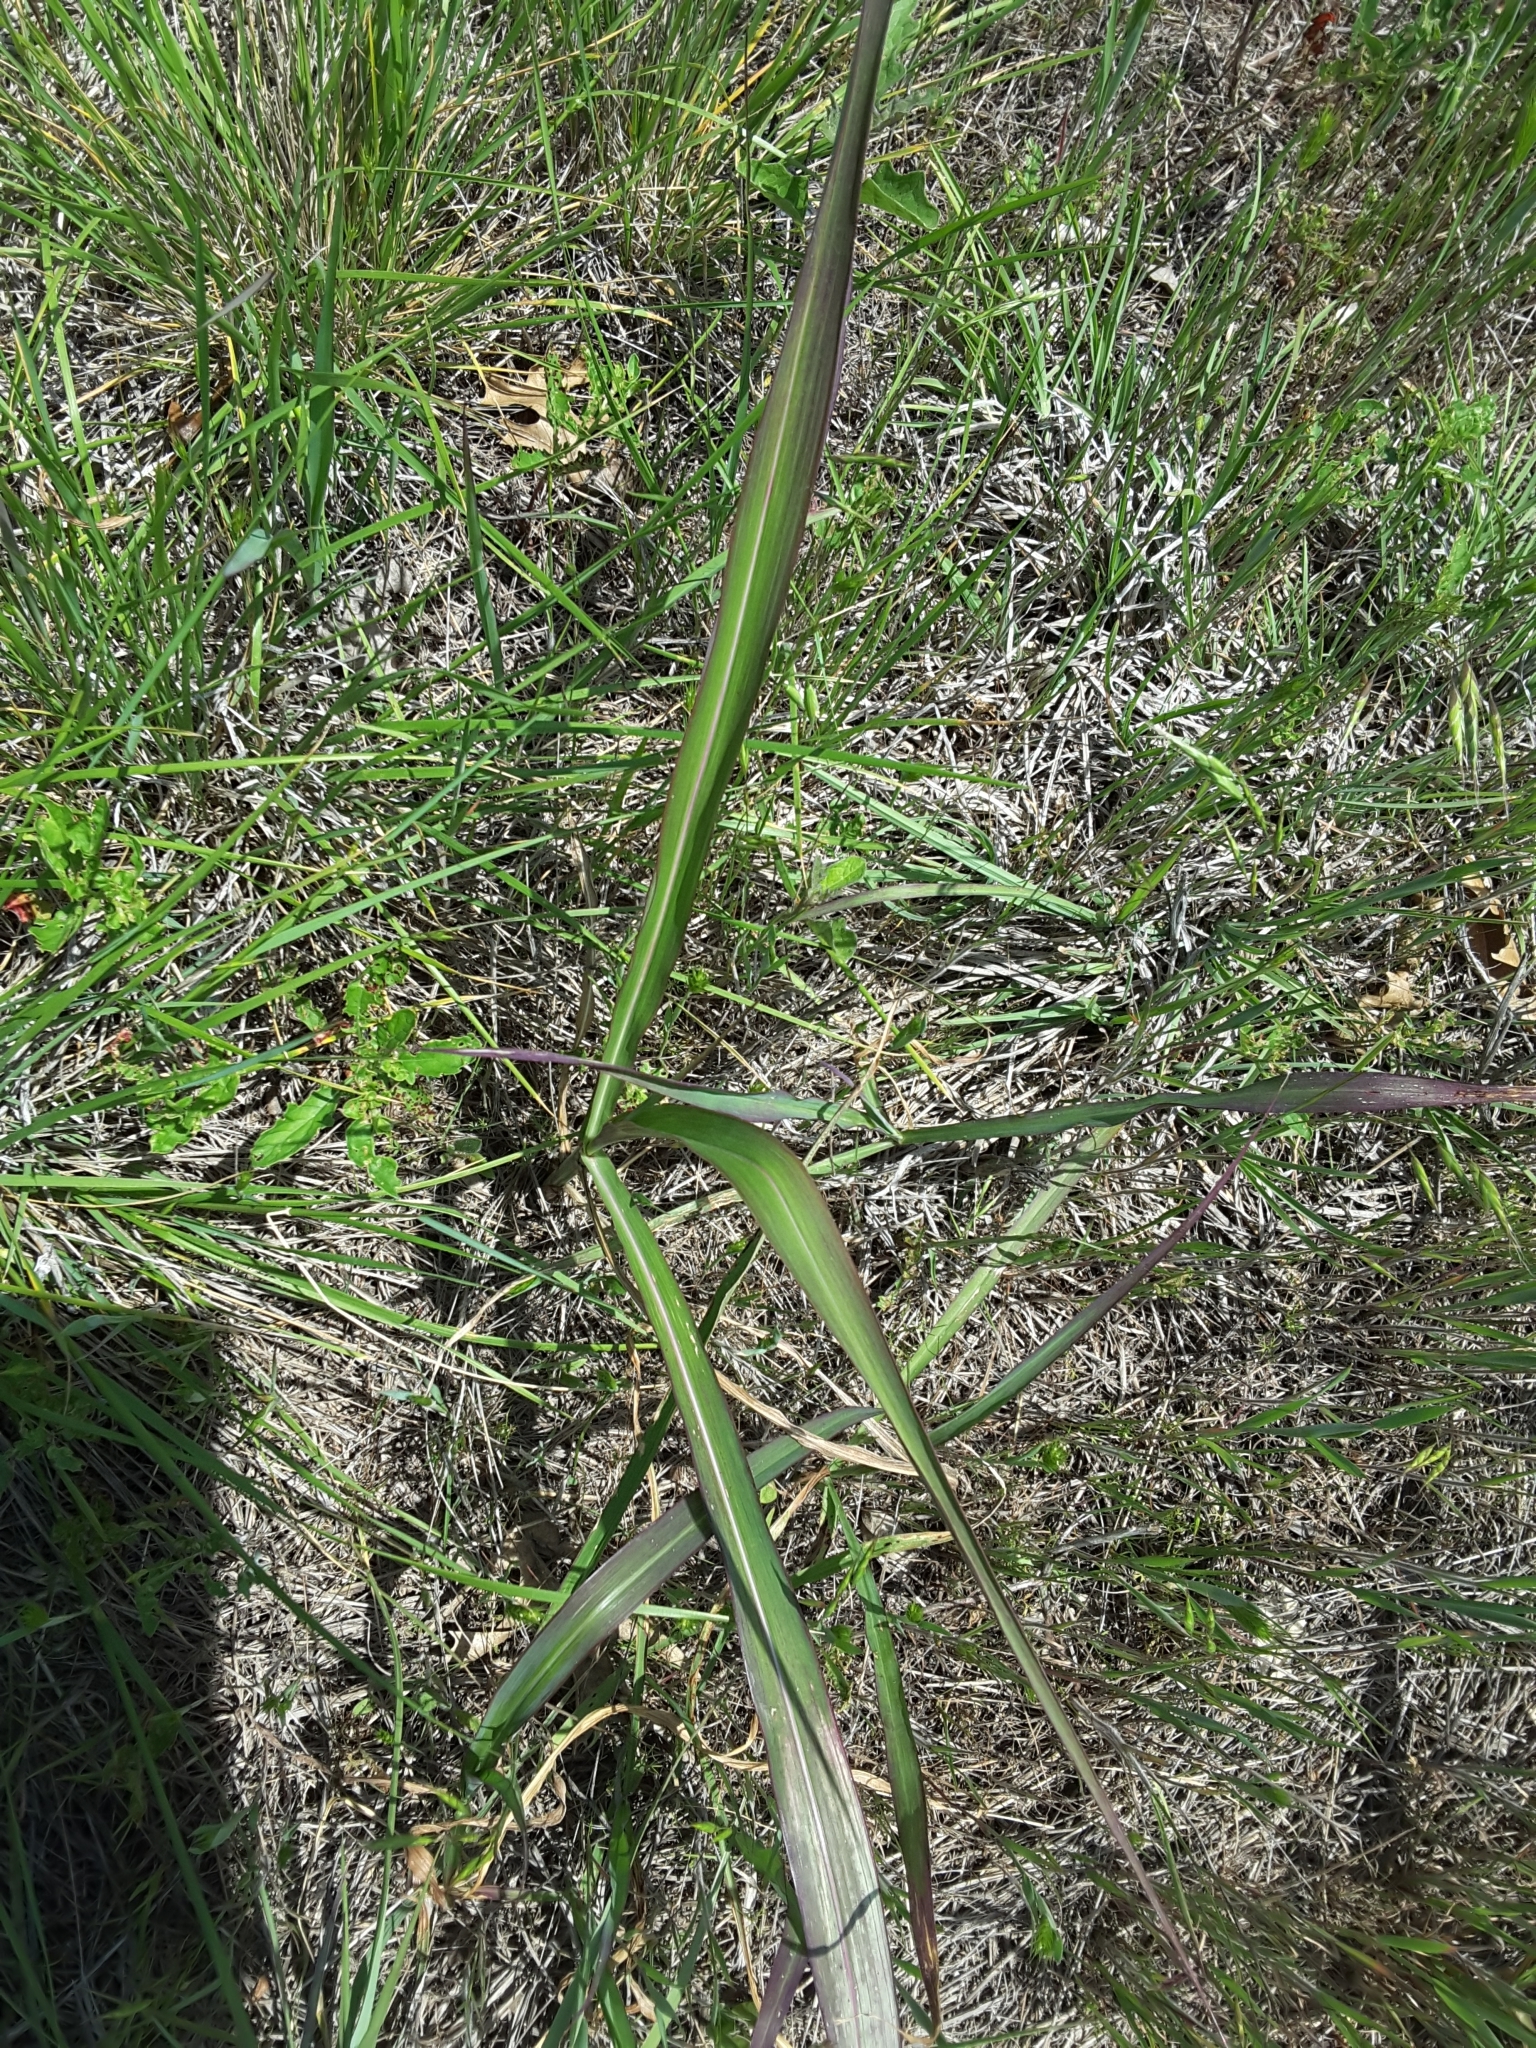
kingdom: Plantae
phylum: Tracheophyta
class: Liliopsida
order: Poales
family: Poaceae
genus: Sorghum
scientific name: Sorghum halepense
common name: Johnson-grass
